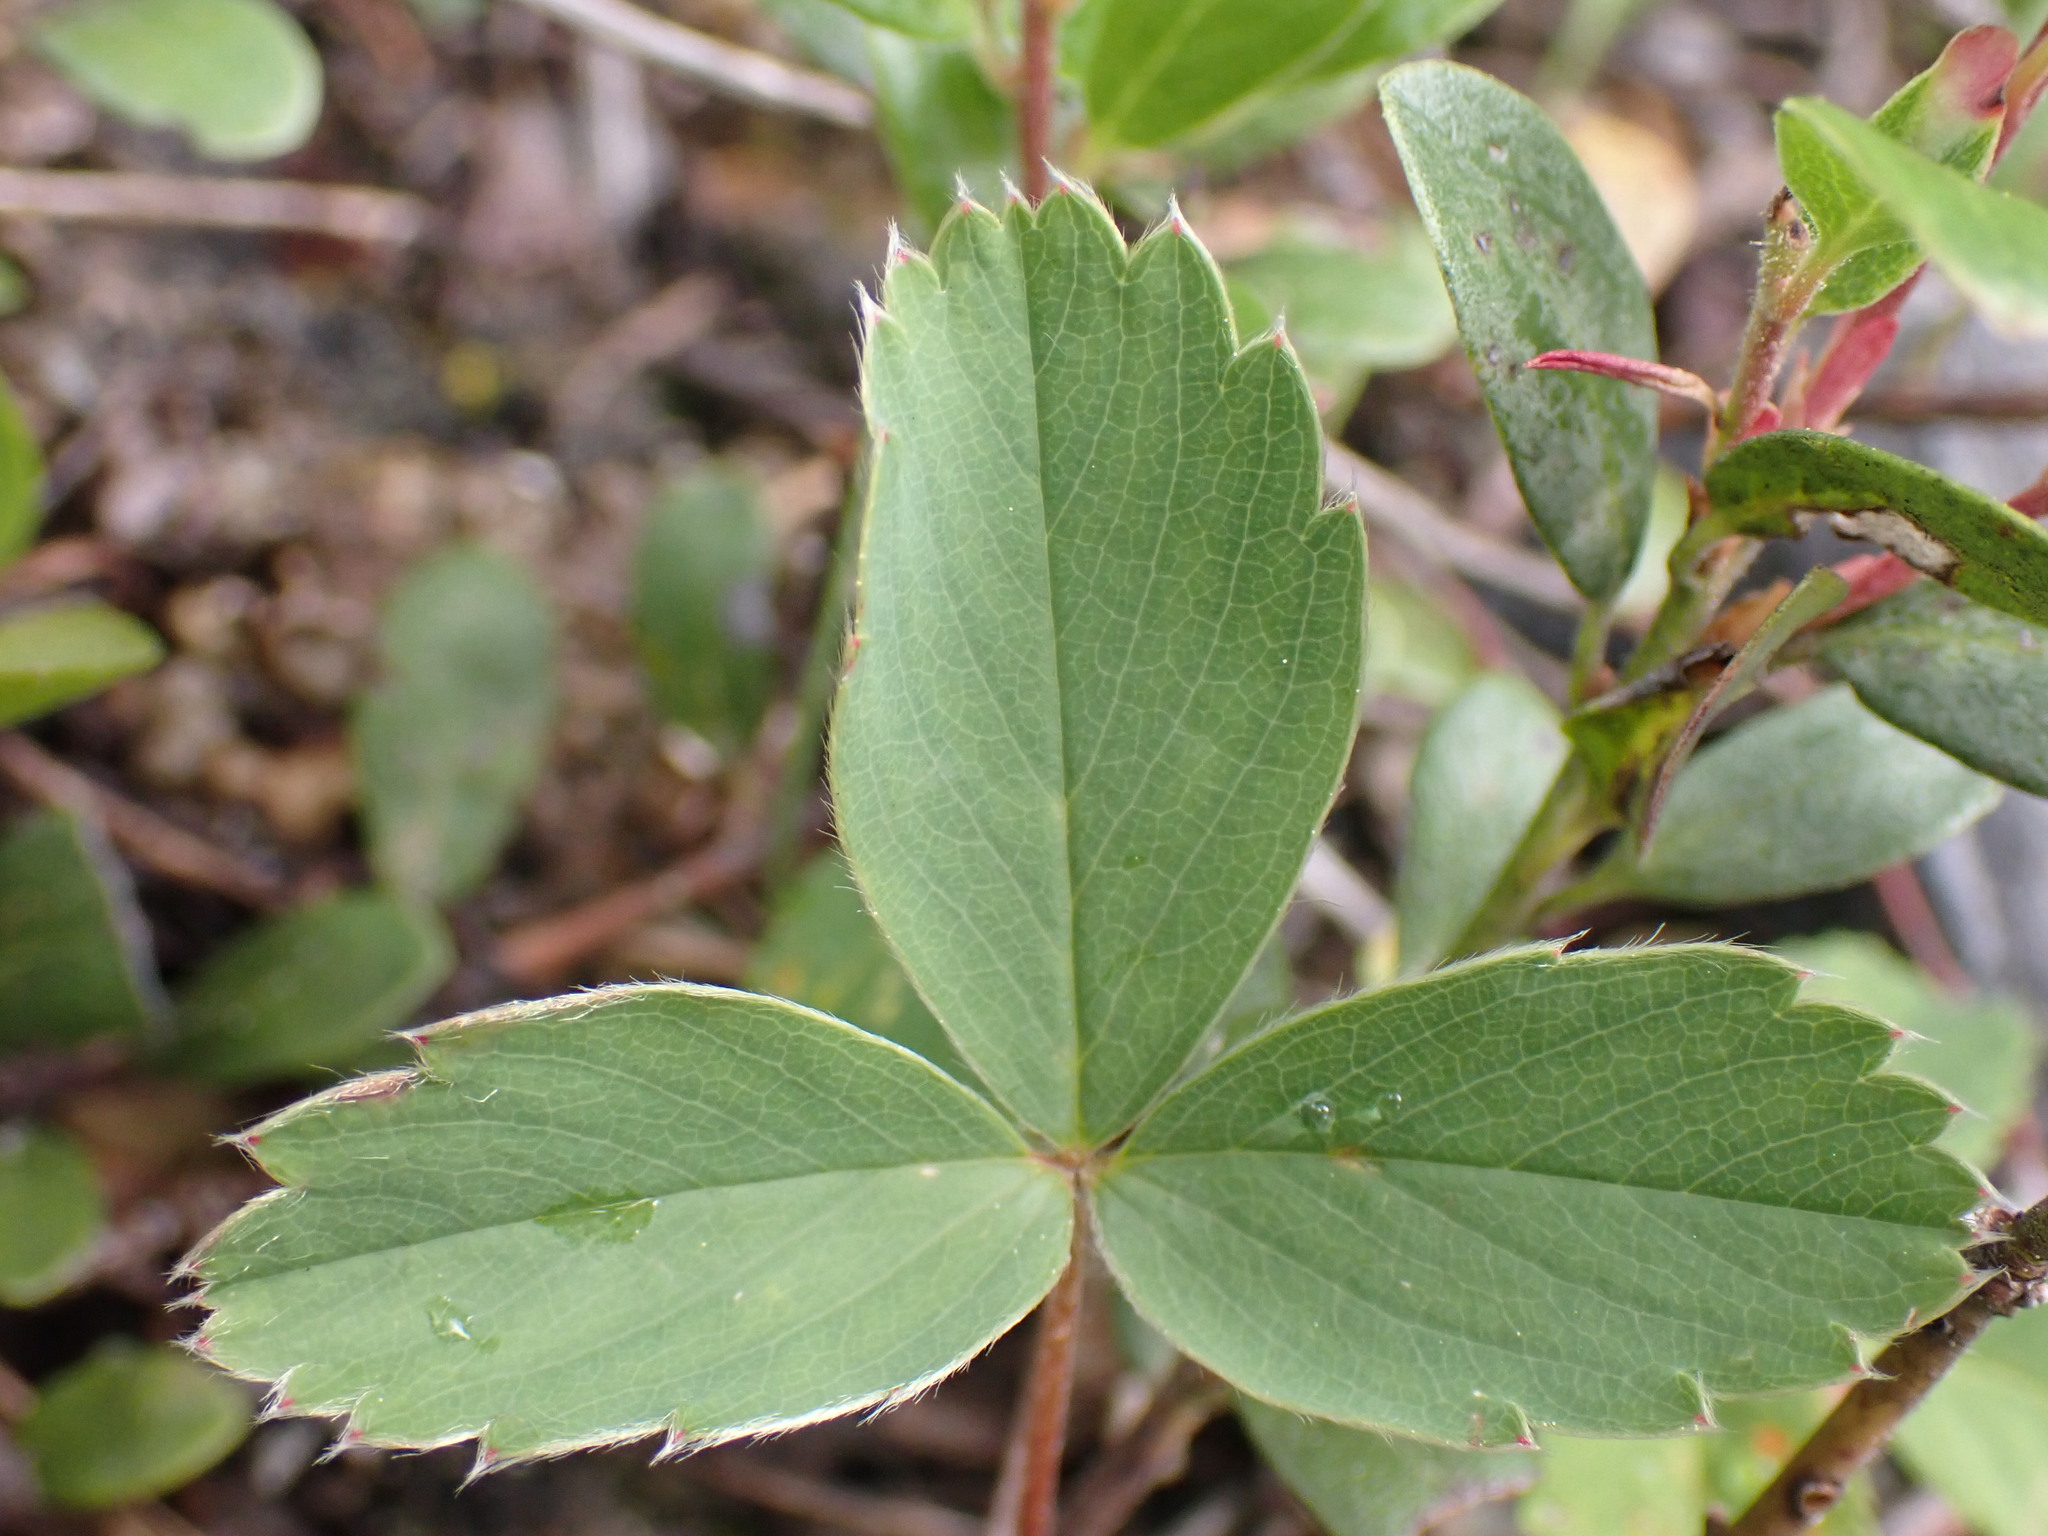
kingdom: Plantae
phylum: Tracheophyta
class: Magnoliopsida
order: Rosales
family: Rosaceae
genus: Fragaria
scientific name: Fragaria virginiana
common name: Thickleaved wild strawberry
